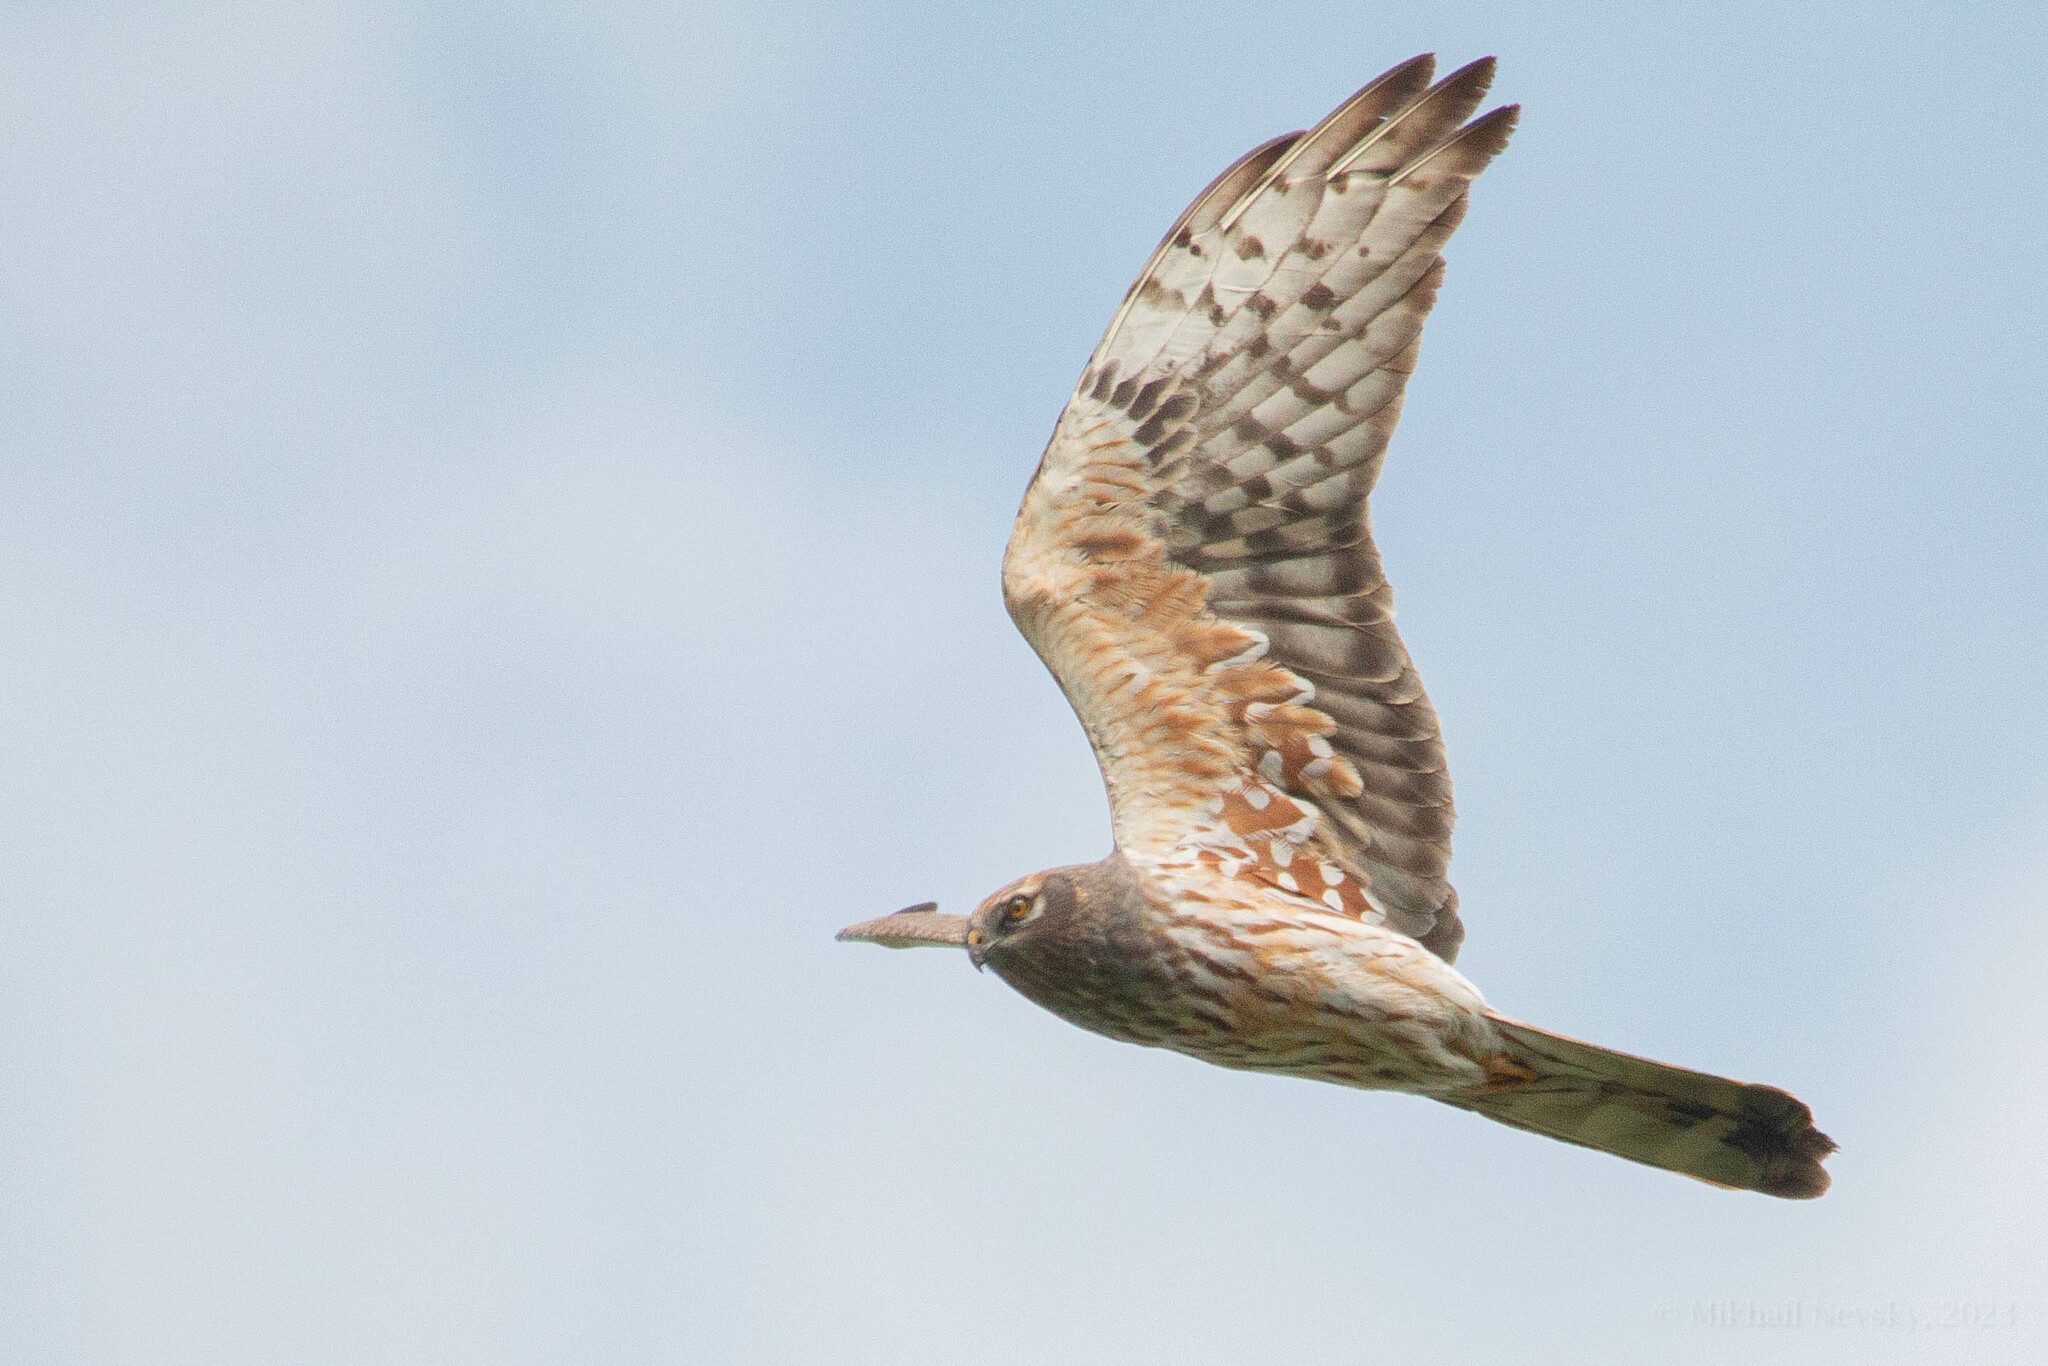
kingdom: Animalia
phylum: Chordata
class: Aves
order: Accipitriformes
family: Accipitridae
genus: Circus
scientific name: Circus pygargus
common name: Montagu's harrier
